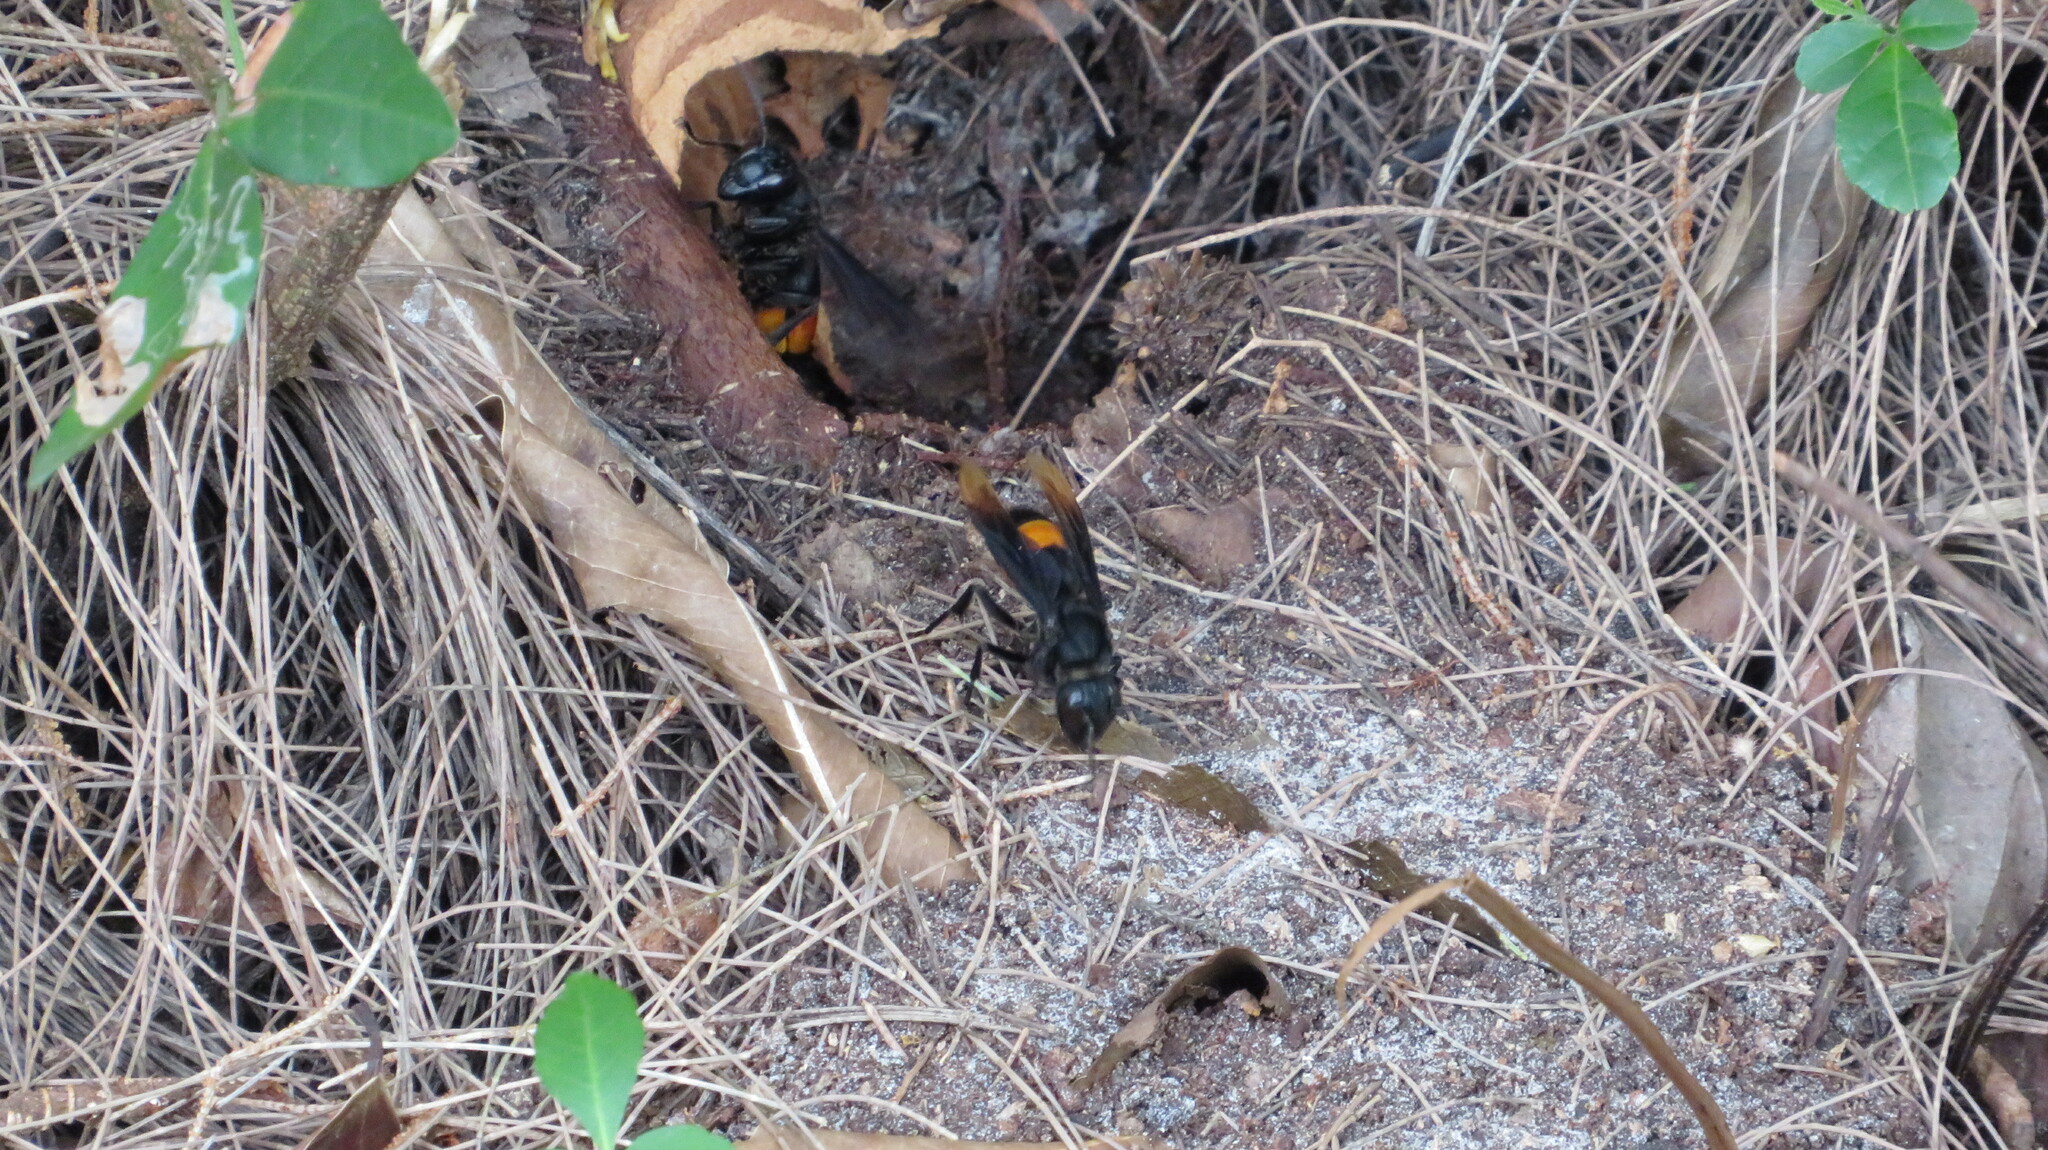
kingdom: Animalia
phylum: Arthropoda
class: Insecta
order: Hymenoptera
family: Vespidae
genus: Vespa
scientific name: Vespa tropica
